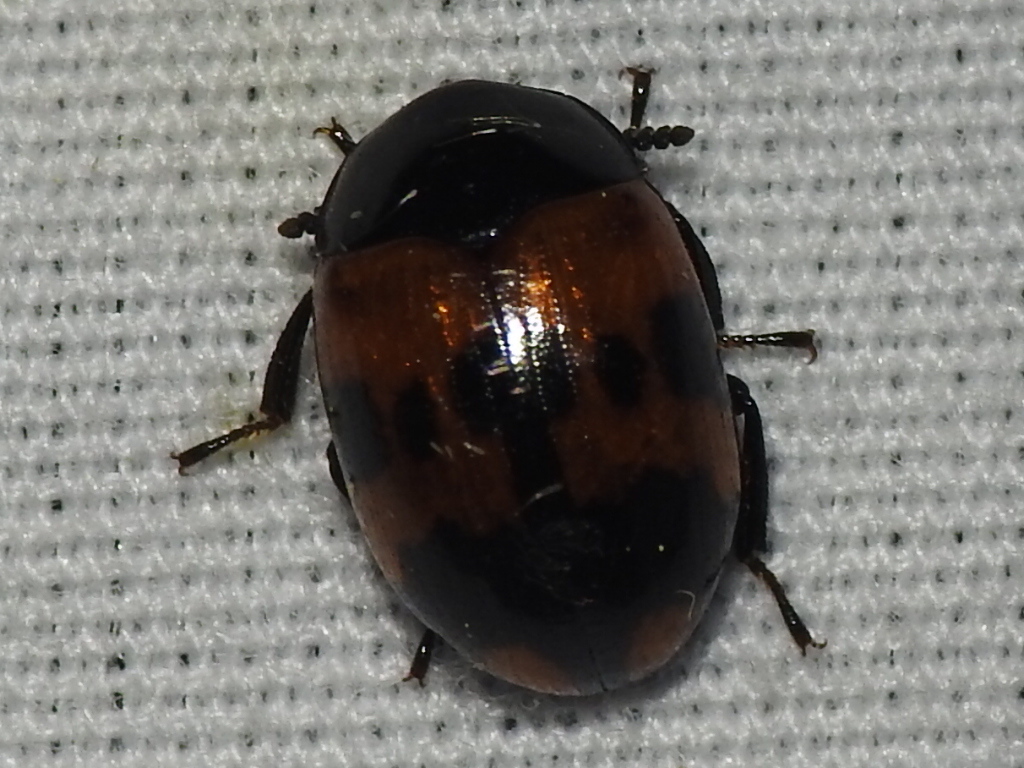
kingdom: Animalia
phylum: Arthropoda
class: Insecta
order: Coleoptera
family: Tenebrionidae
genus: Diaperis
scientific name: Diaperis nigronotata
